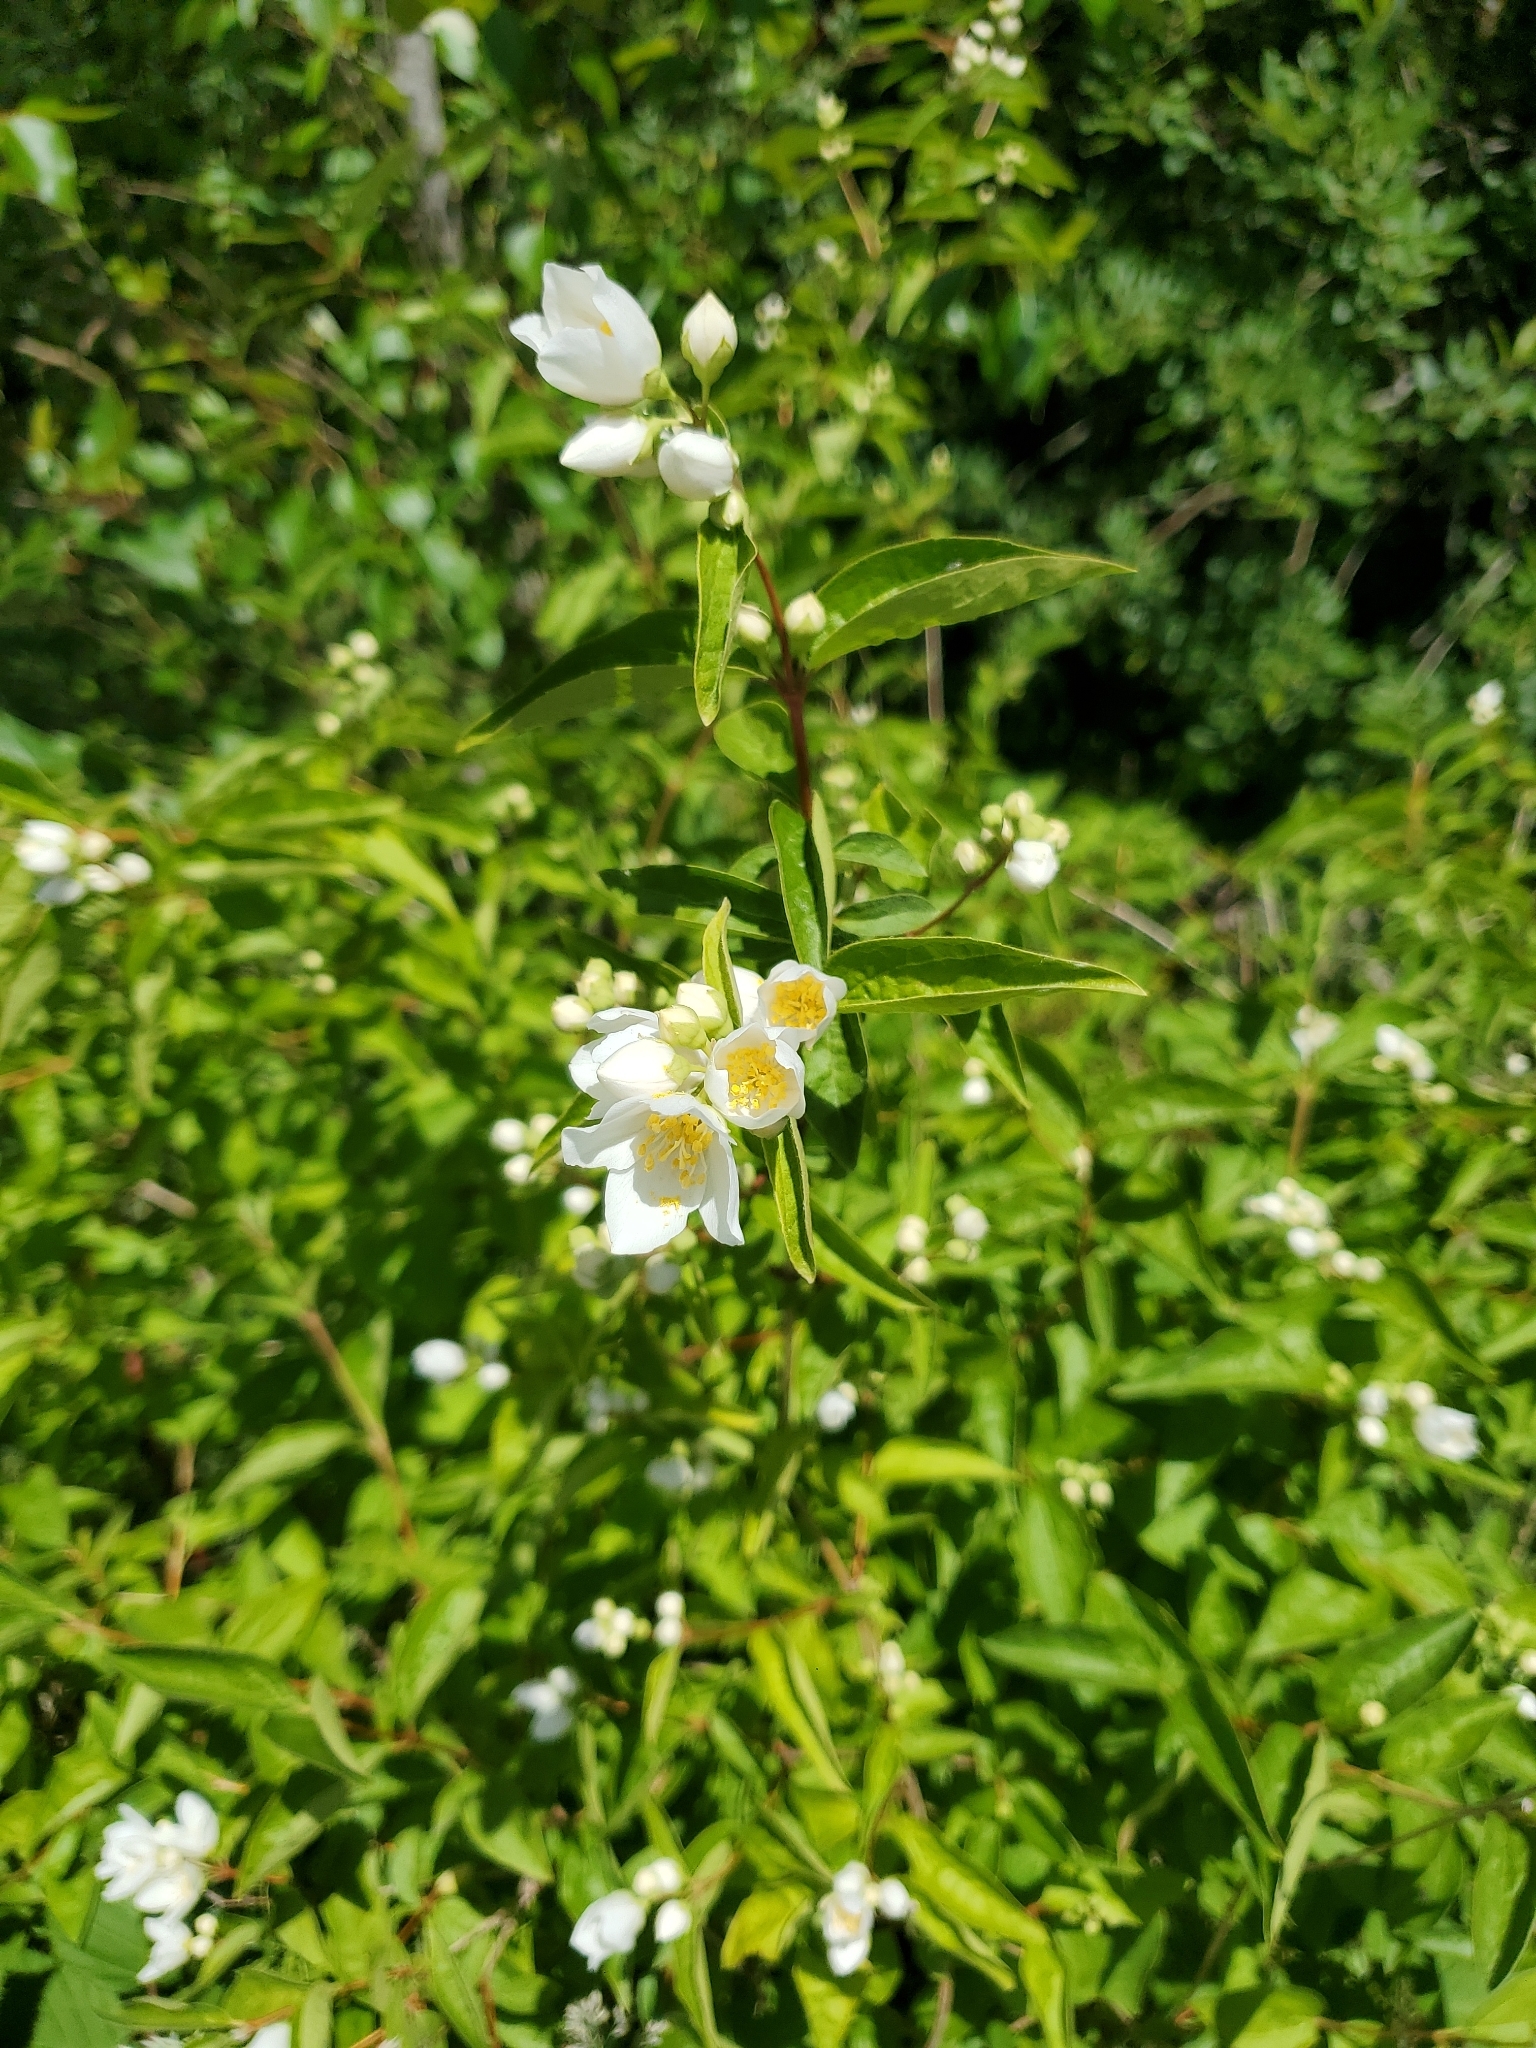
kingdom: Plantae
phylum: Tracheophyta
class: Magnoliopsida
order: Cornales
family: Hydrangeaceae
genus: Philadelphus
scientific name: Philadelphus coronarius
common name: Mock orange
